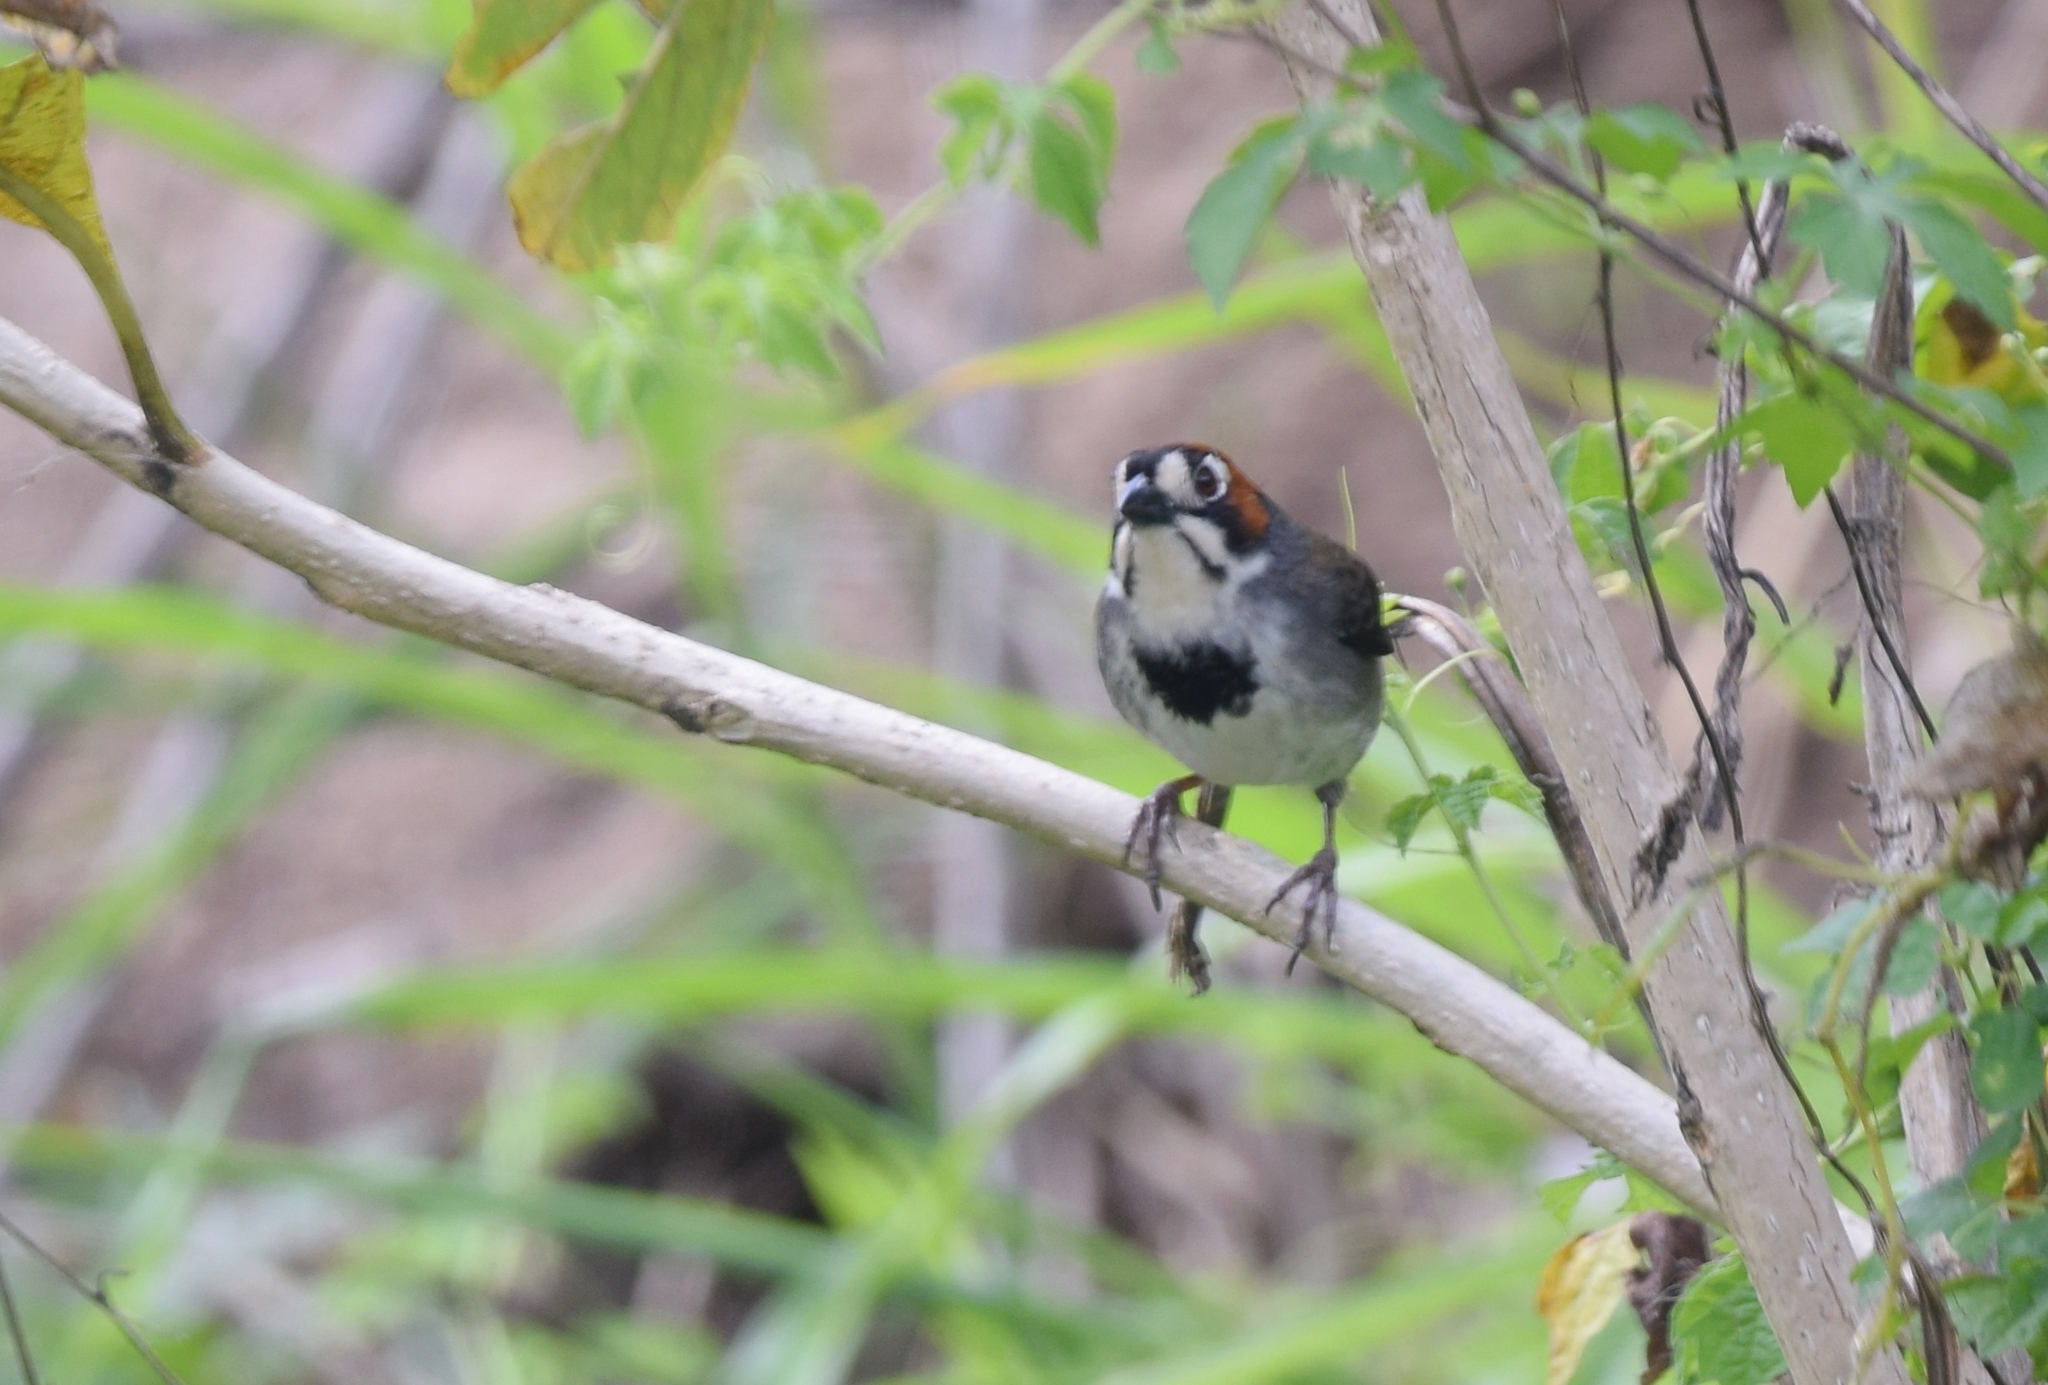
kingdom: Animalia
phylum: Chordata
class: Aves
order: Passeriformes
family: Passerellidae
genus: Melozone
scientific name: Melozone cabanisi
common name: Cabanis's ground sparrow
